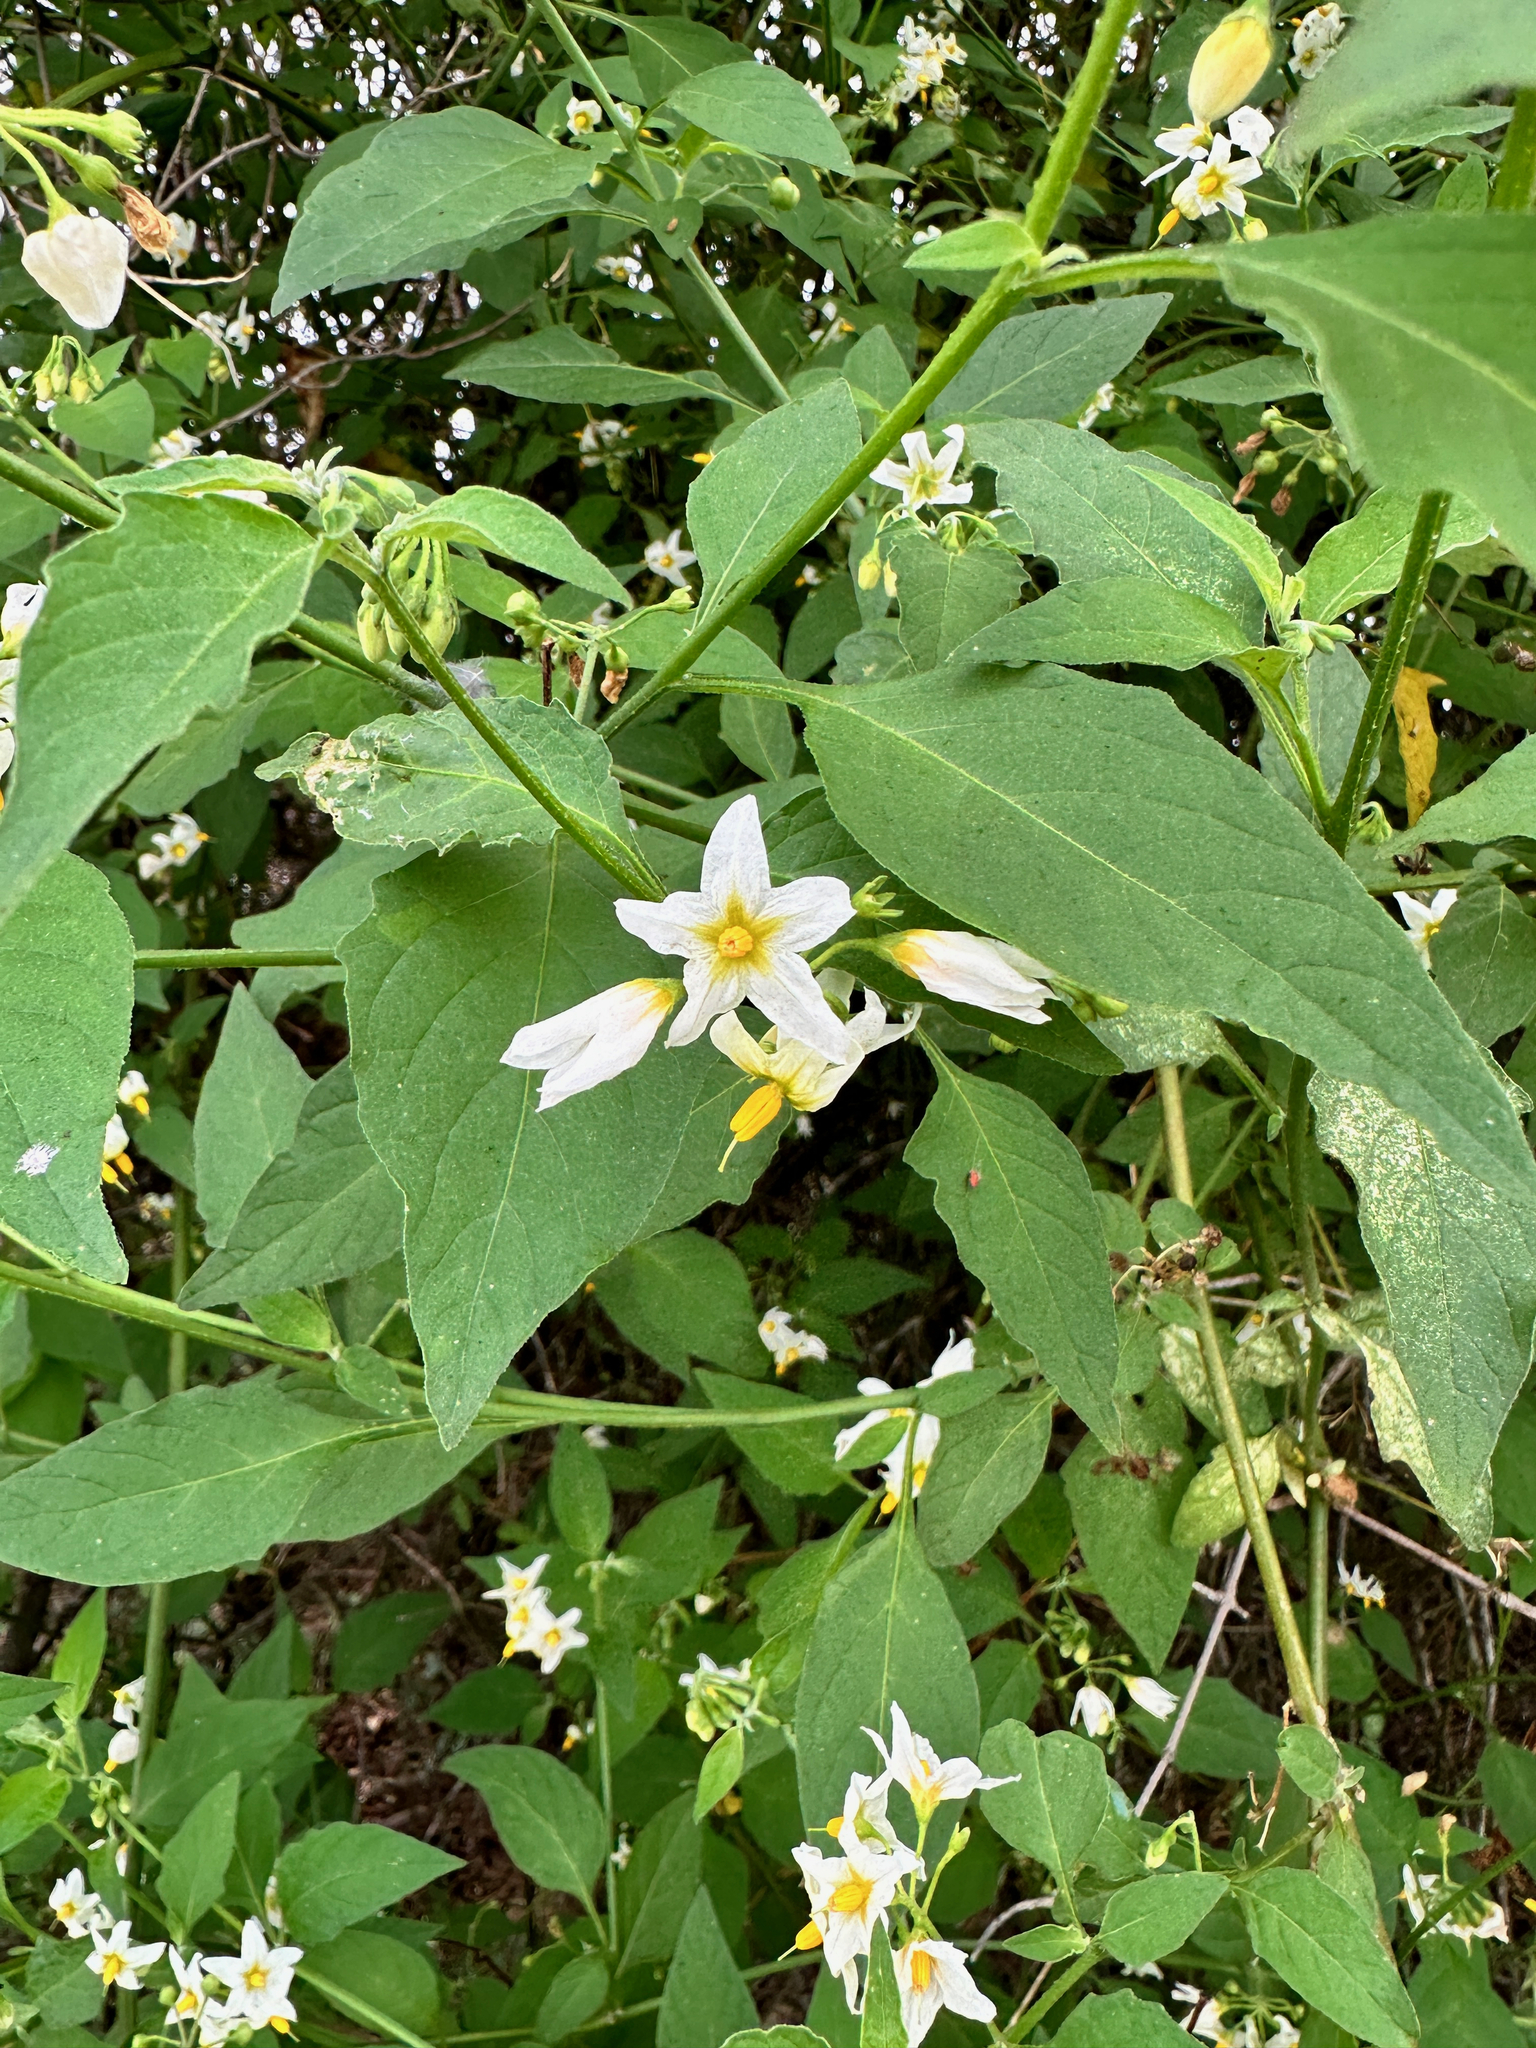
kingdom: Plantae
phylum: Tracheophyta
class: Magnoliopsida
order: Solanales
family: Solanaceae
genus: Solanum
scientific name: Solanum douglasii
